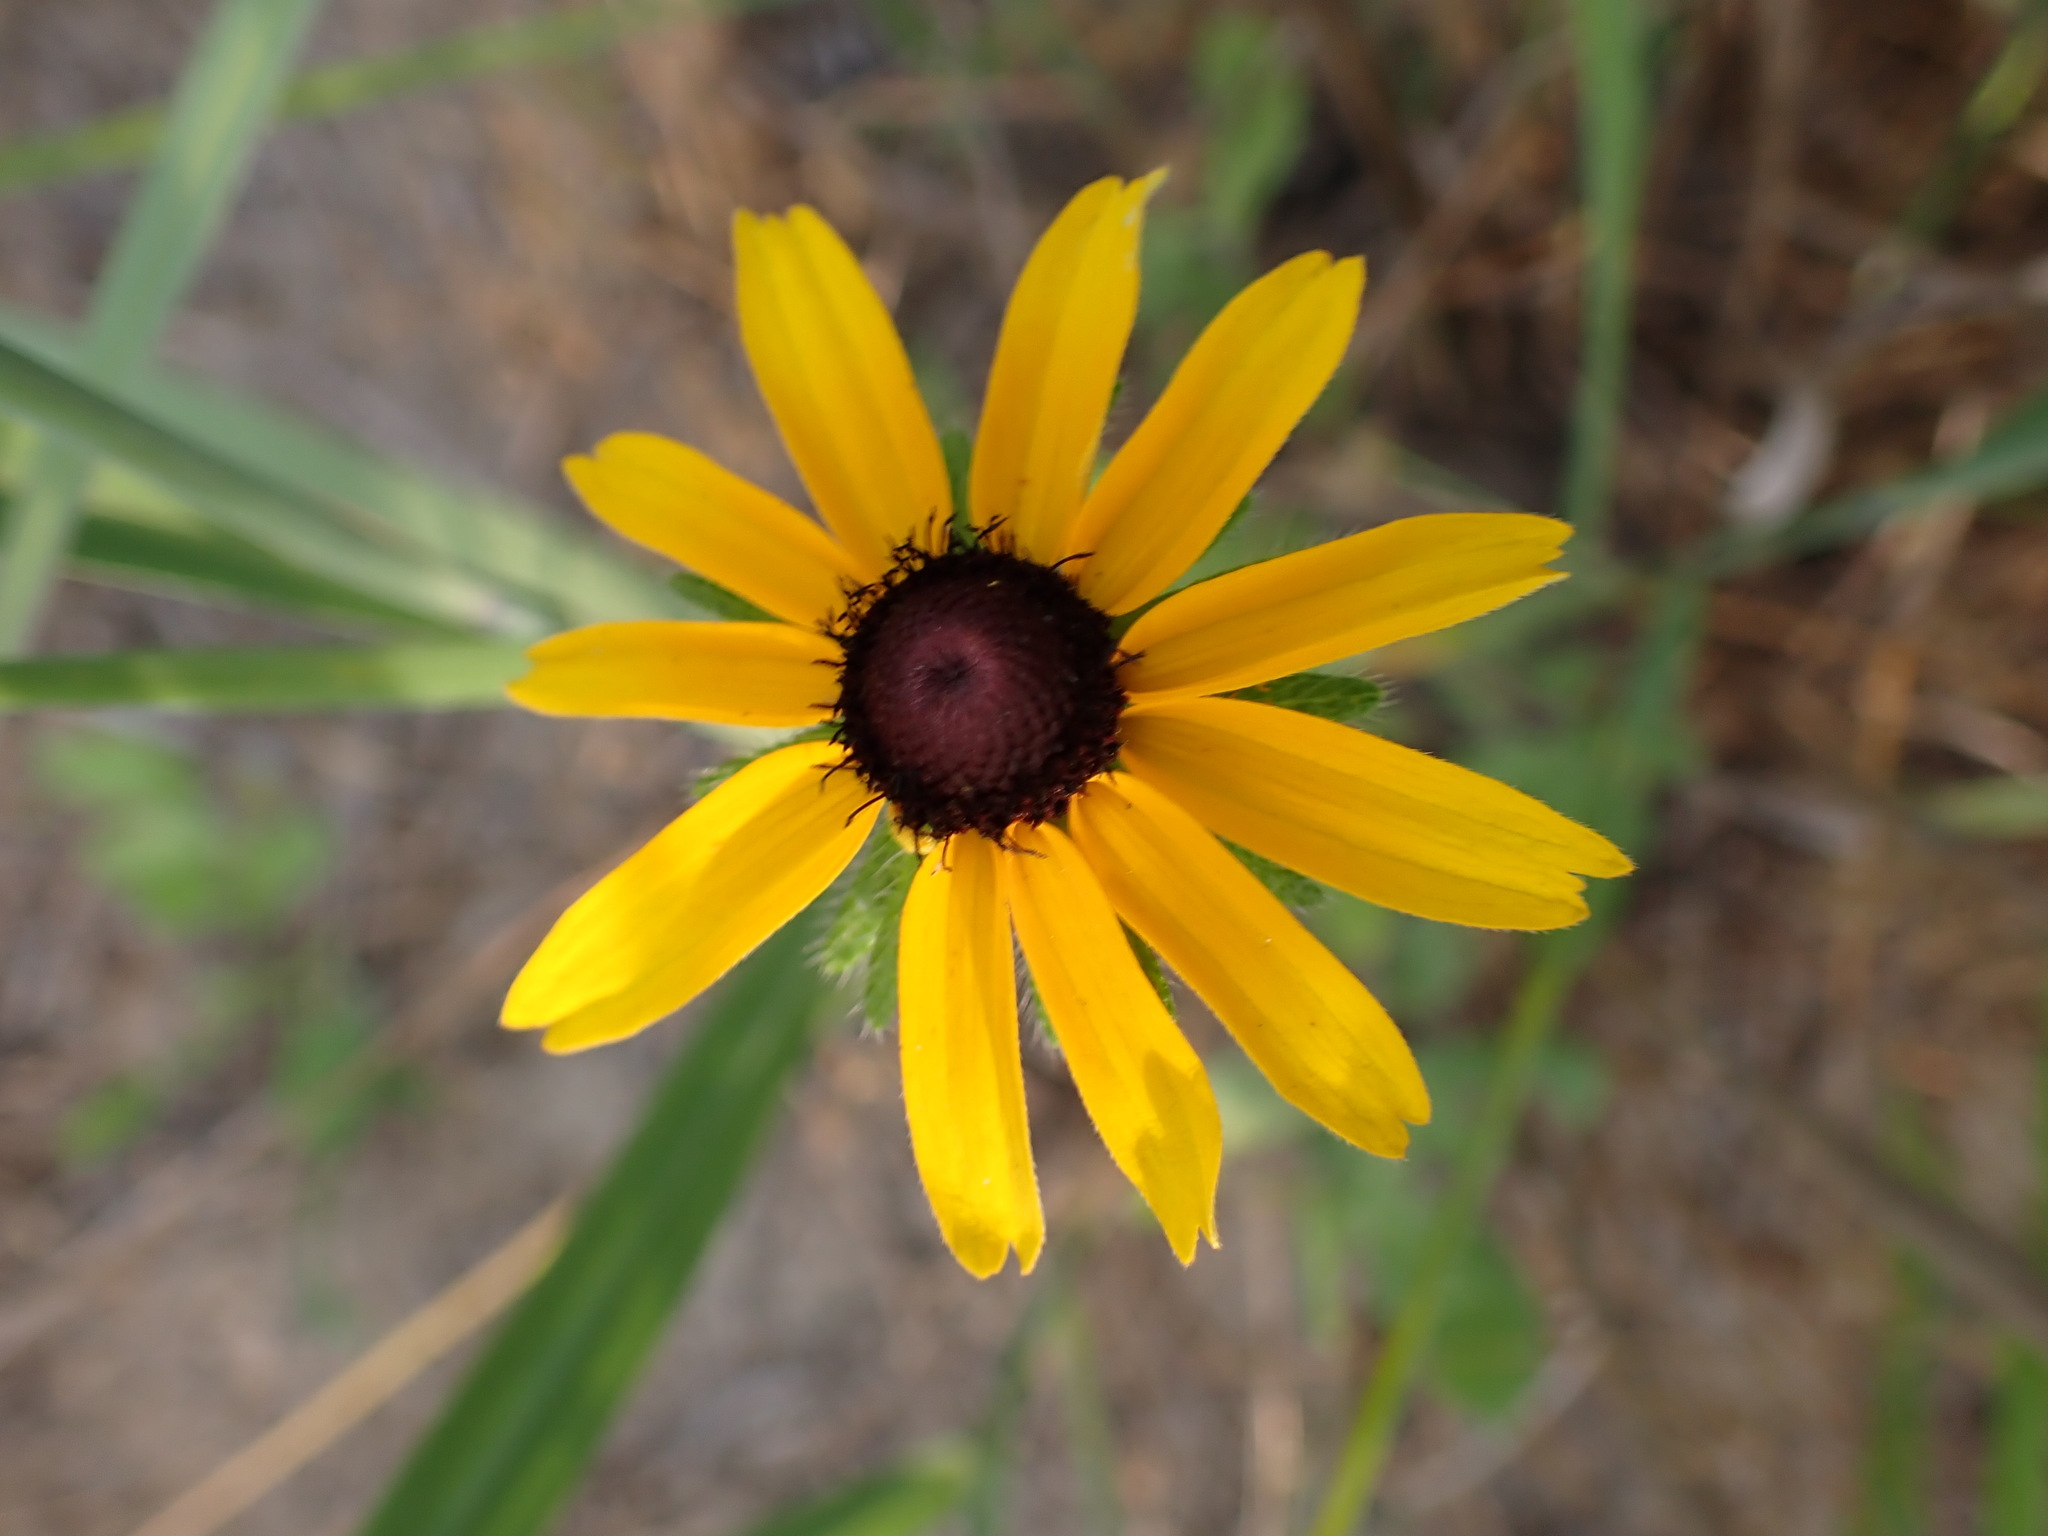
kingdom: Plantae
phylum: Tracheophyta
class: Magnoliopsida
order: Asterales
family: Asteraceae
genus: Rudbeckia
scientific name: Rudbeckia hirta
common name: Black-eyed-susan
